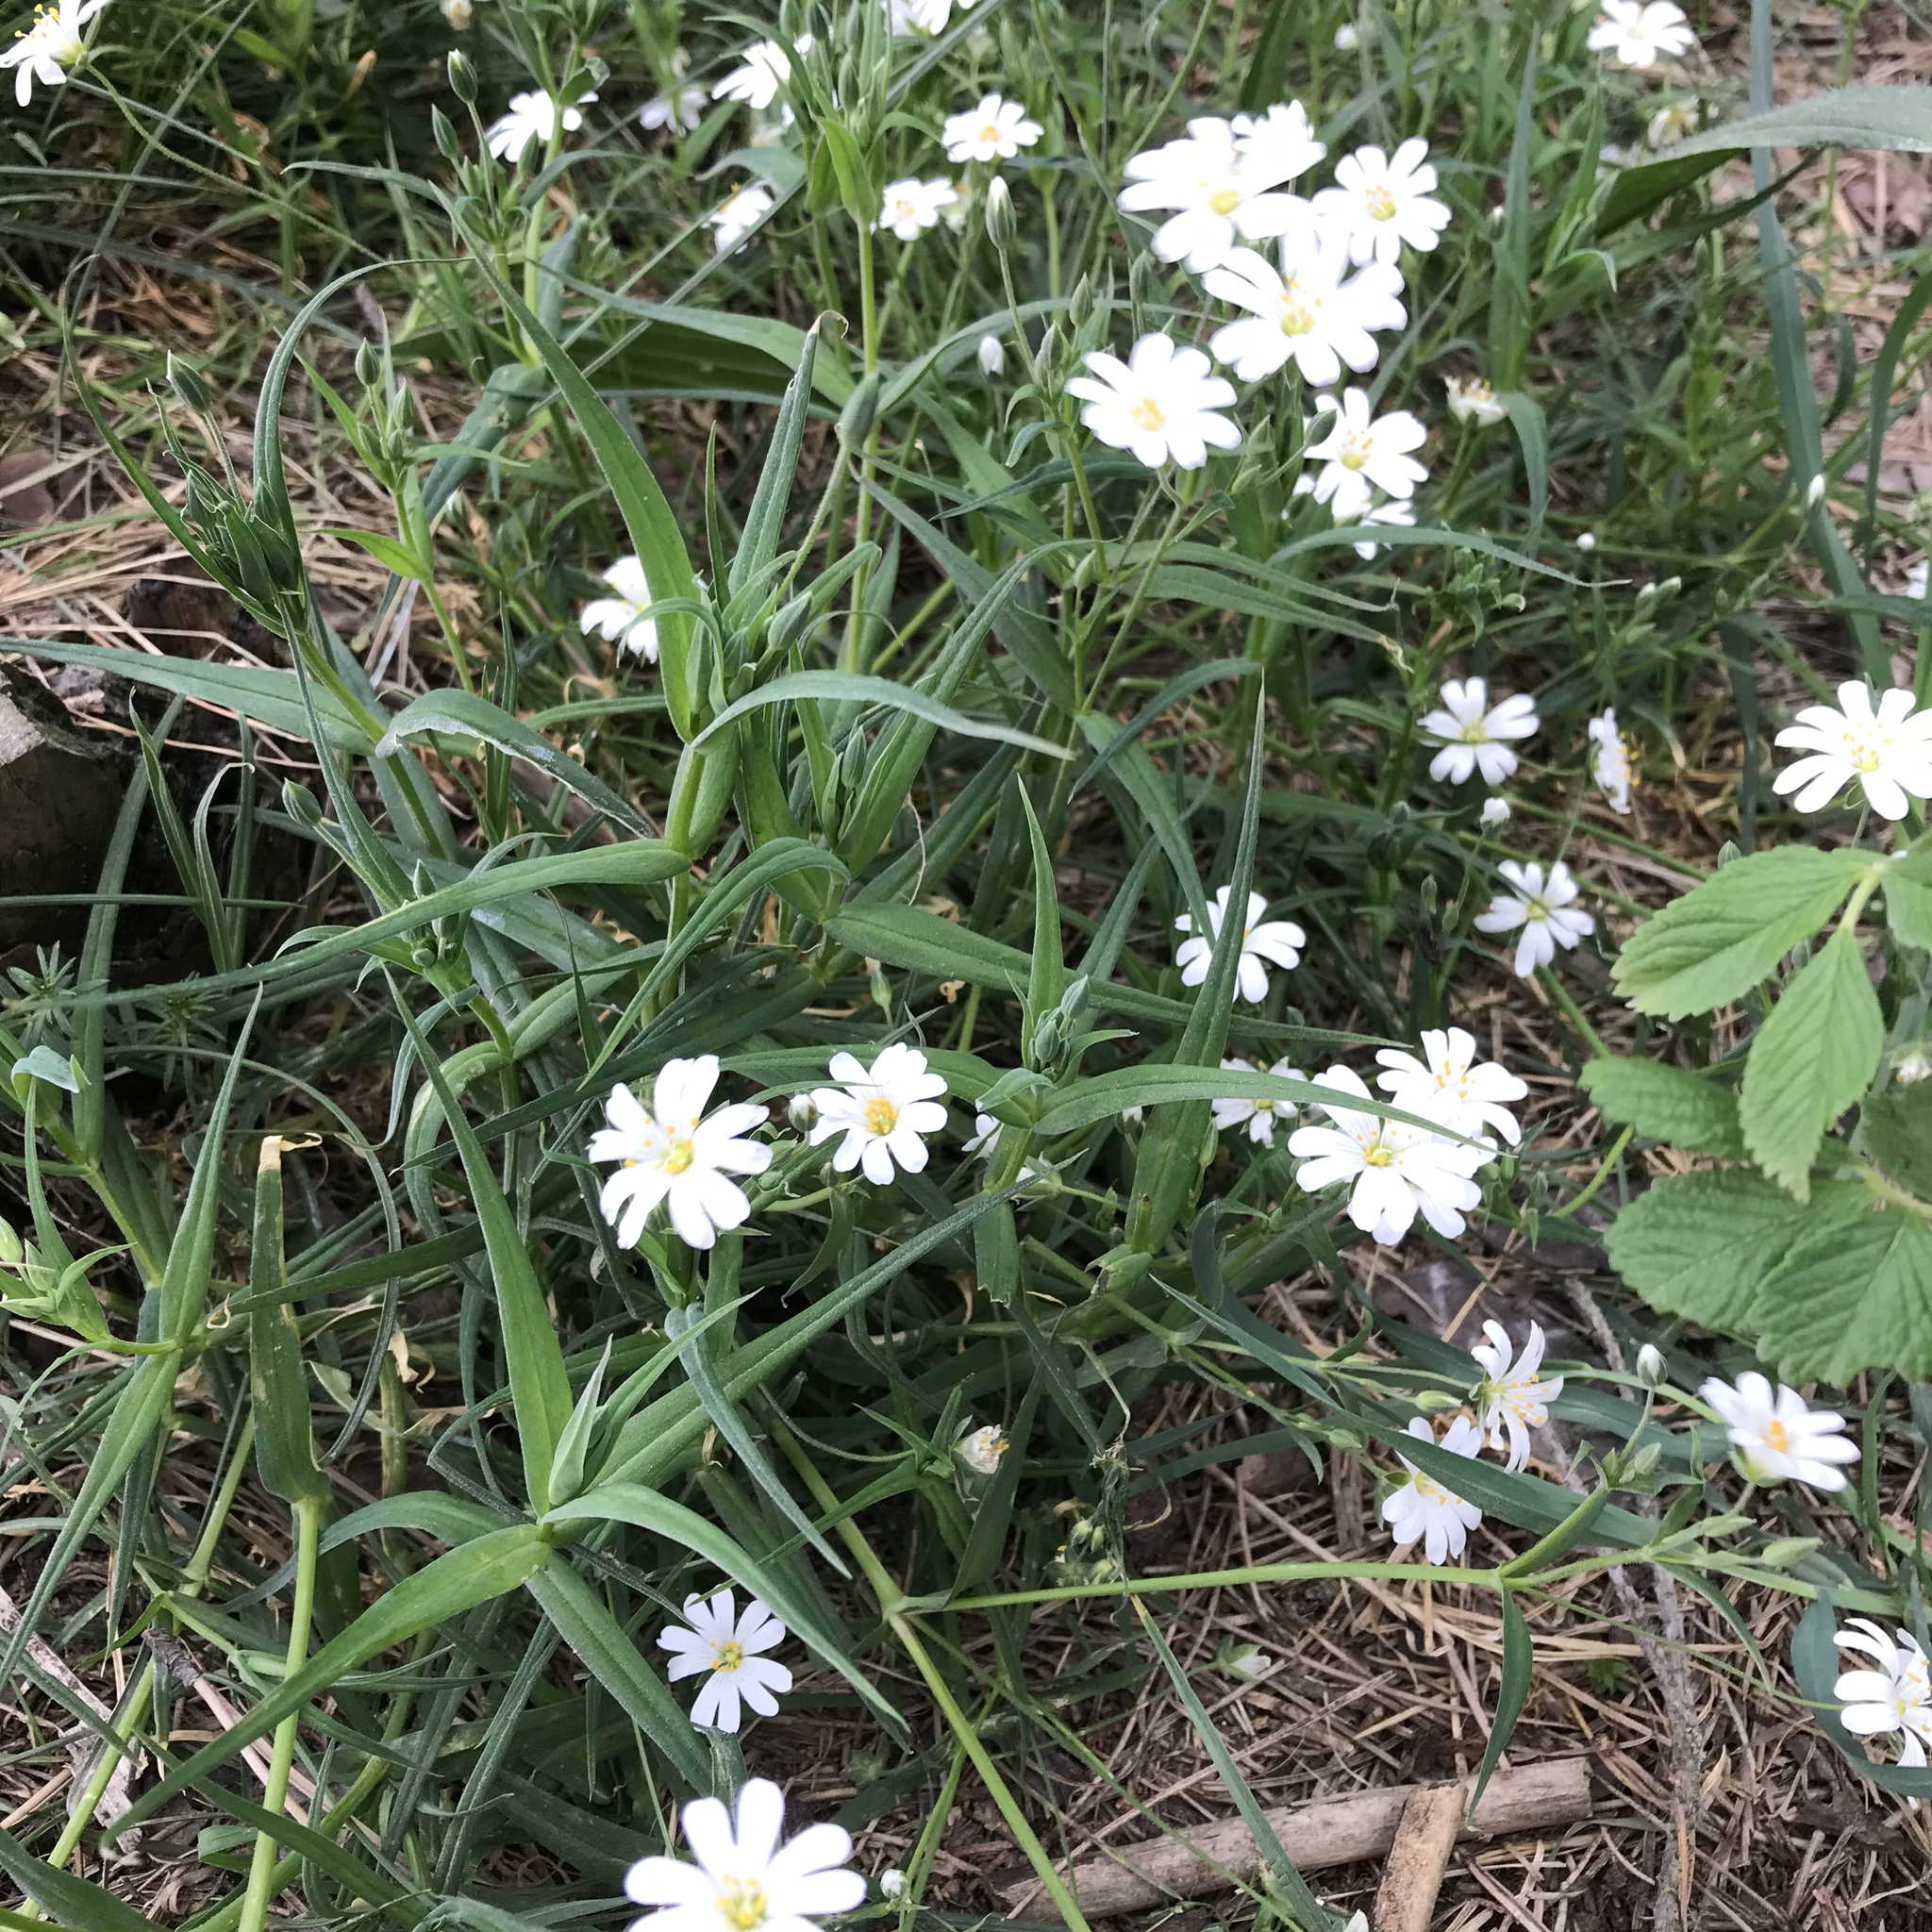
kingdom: Plantae
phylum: Tracheophyta
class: Magnoliopsida
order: Caryophyllales
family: Caryophyllaceae
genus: Rabelera
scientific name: Rabelera holostea
